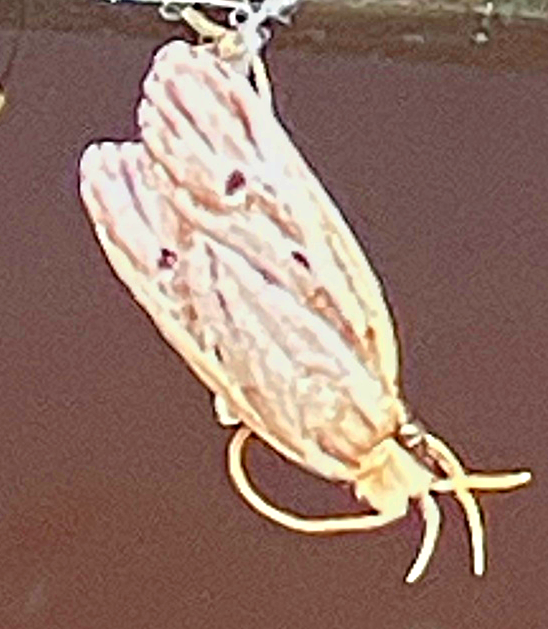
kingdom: Animalia
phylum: Arthropoda
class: Insecta
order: Lepidoptera
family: Depressariidae
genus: Eupragia
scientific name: Eupragia hospita
